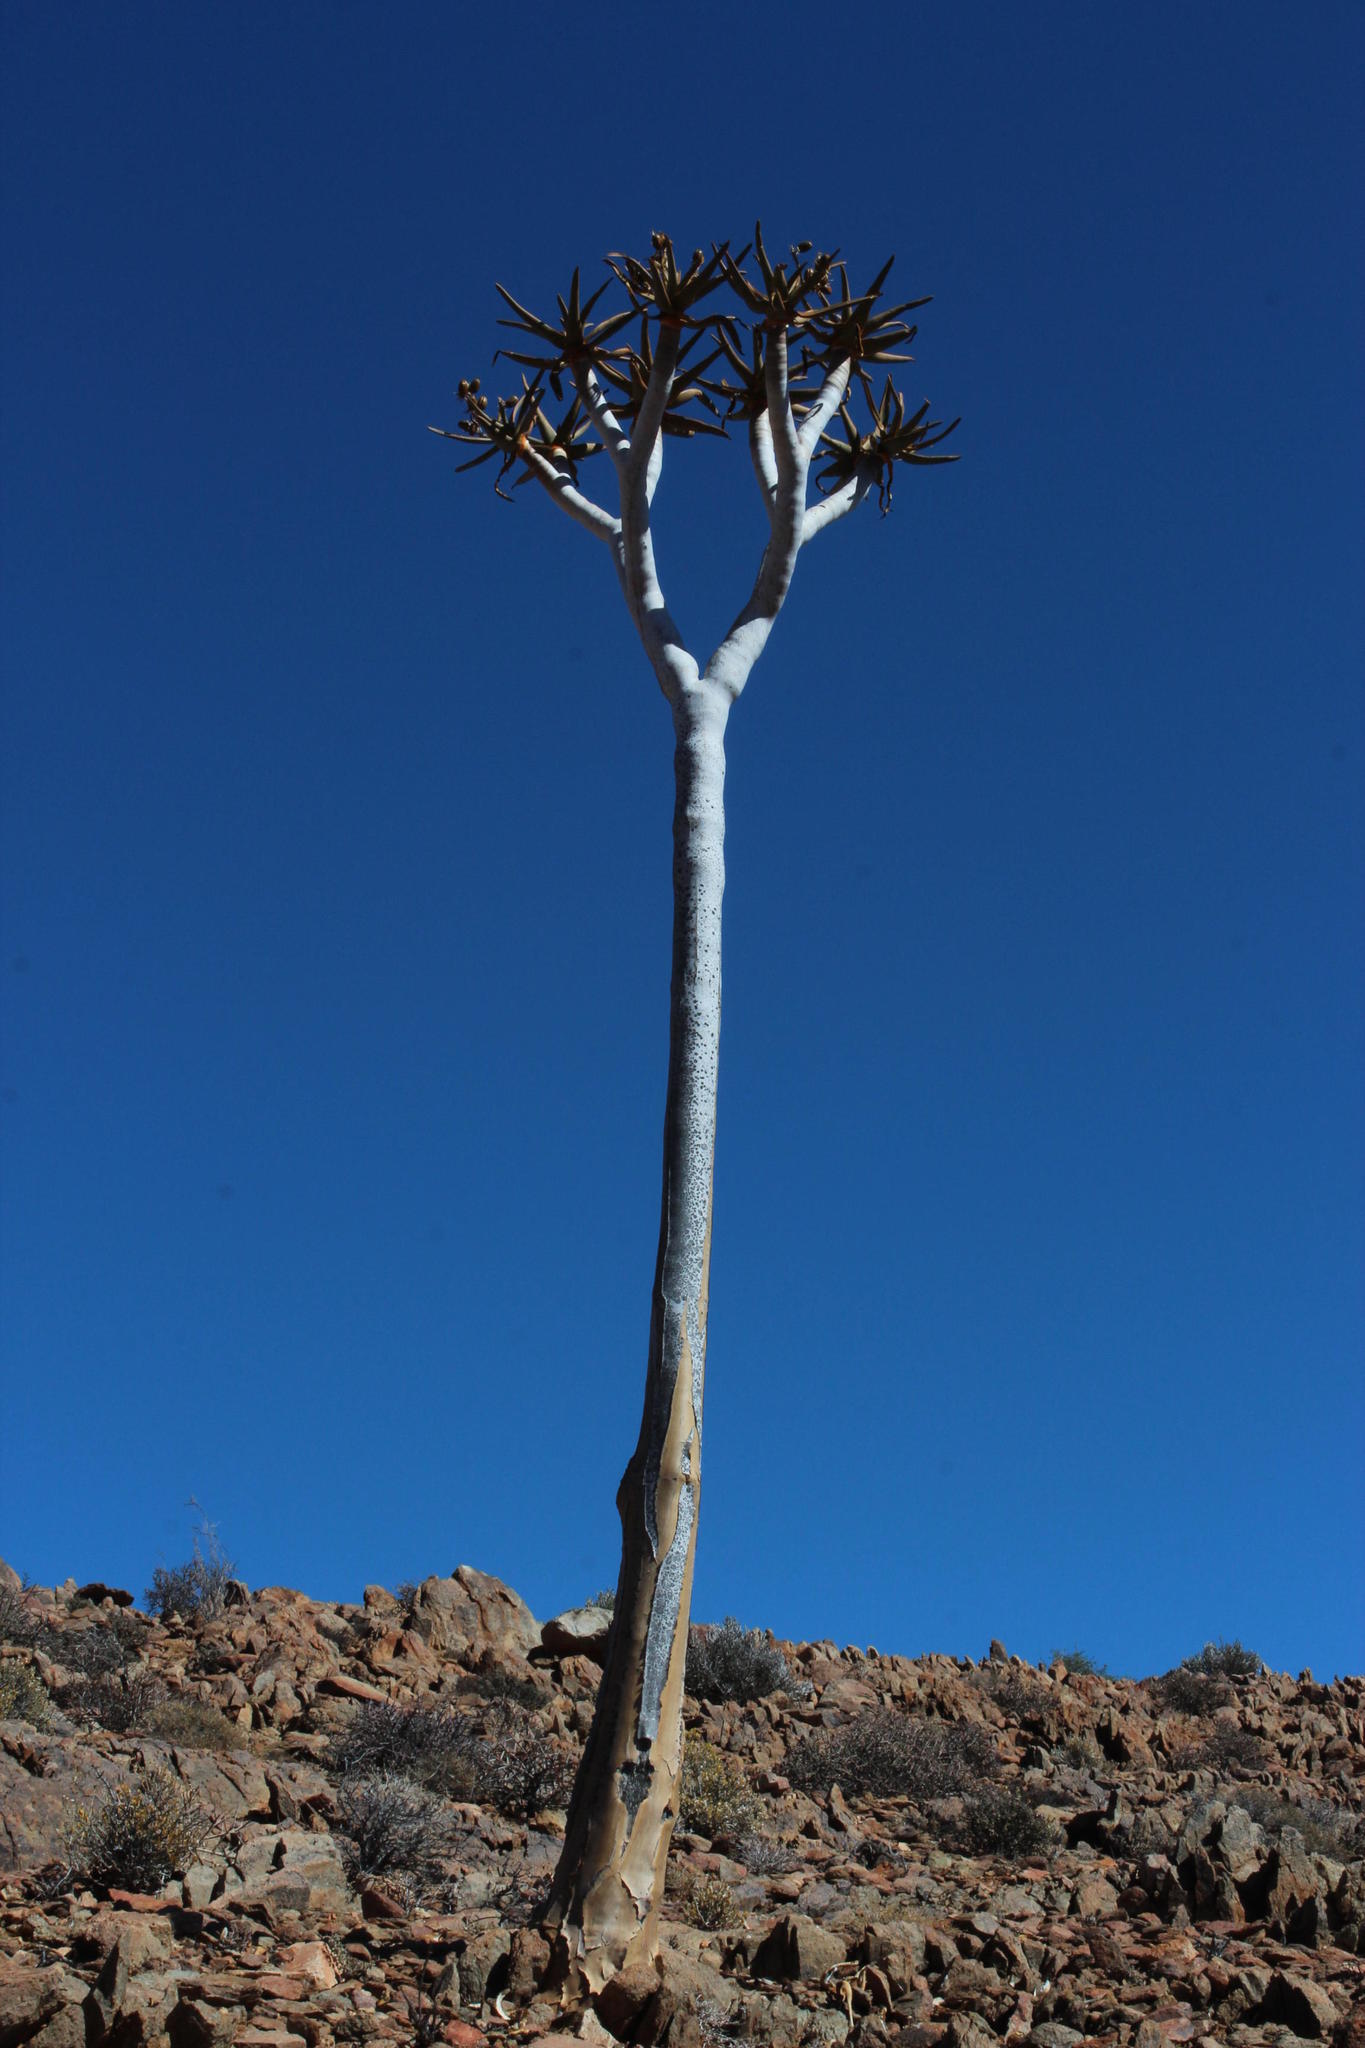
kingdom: Plantae
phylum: Tracheophyta
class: Liliopsida
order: Asparagales
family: Asphodelaceae
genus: Aloidendron
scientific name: Aloidendron dichotomum
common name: Quiver tree
